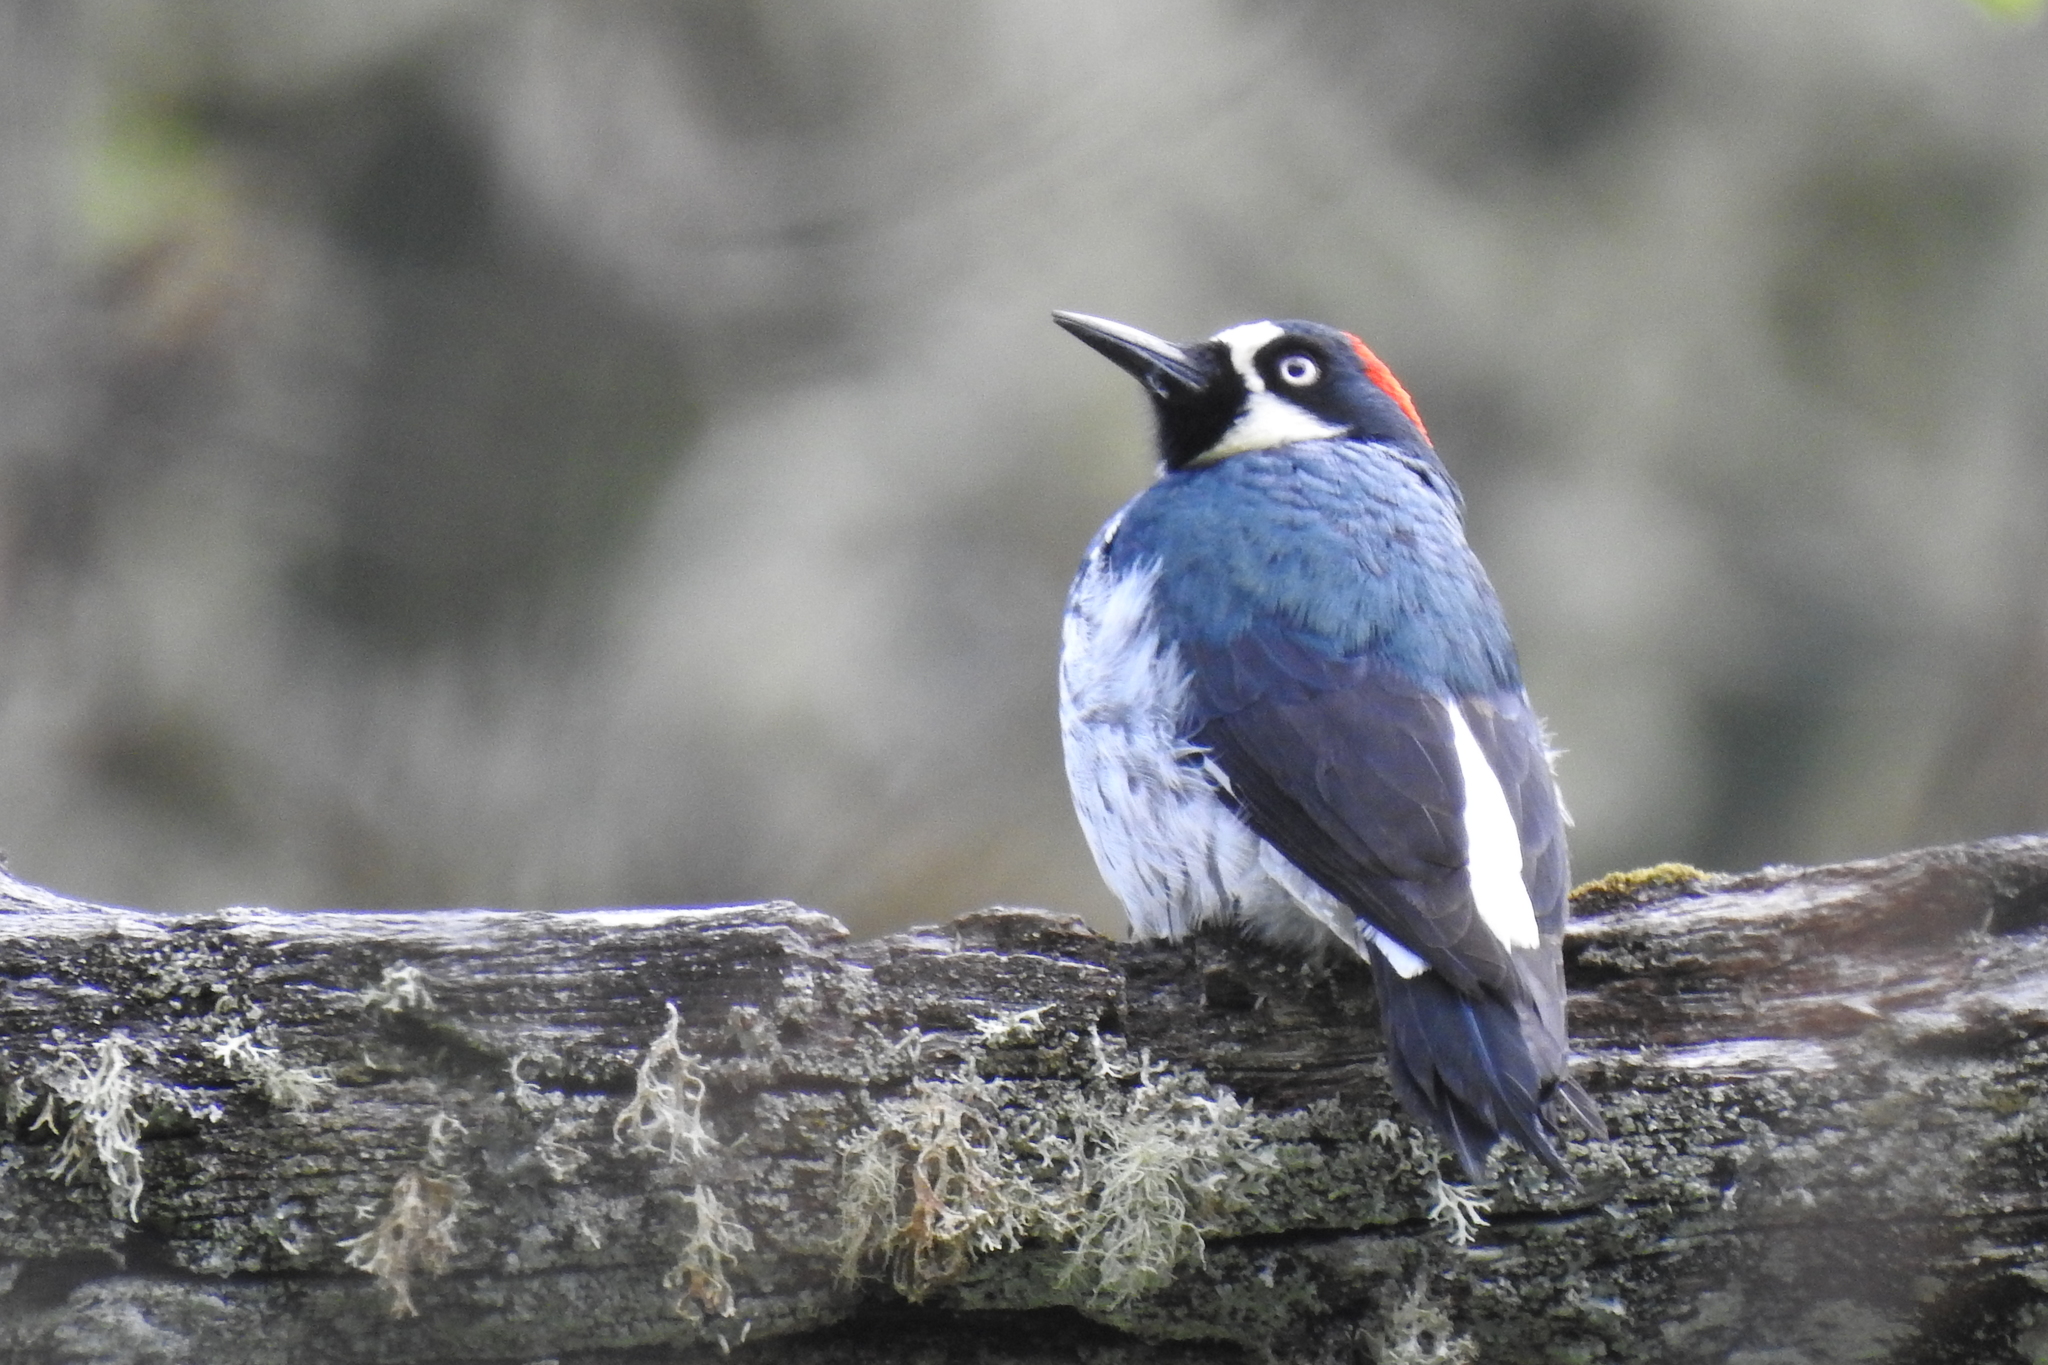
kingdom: Animalia
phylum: Chordata
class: Aves
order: Piciformes
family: Picidae
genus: Melanerpes
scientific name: Melanerpes formicivorus
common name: Acorn woodpecker
